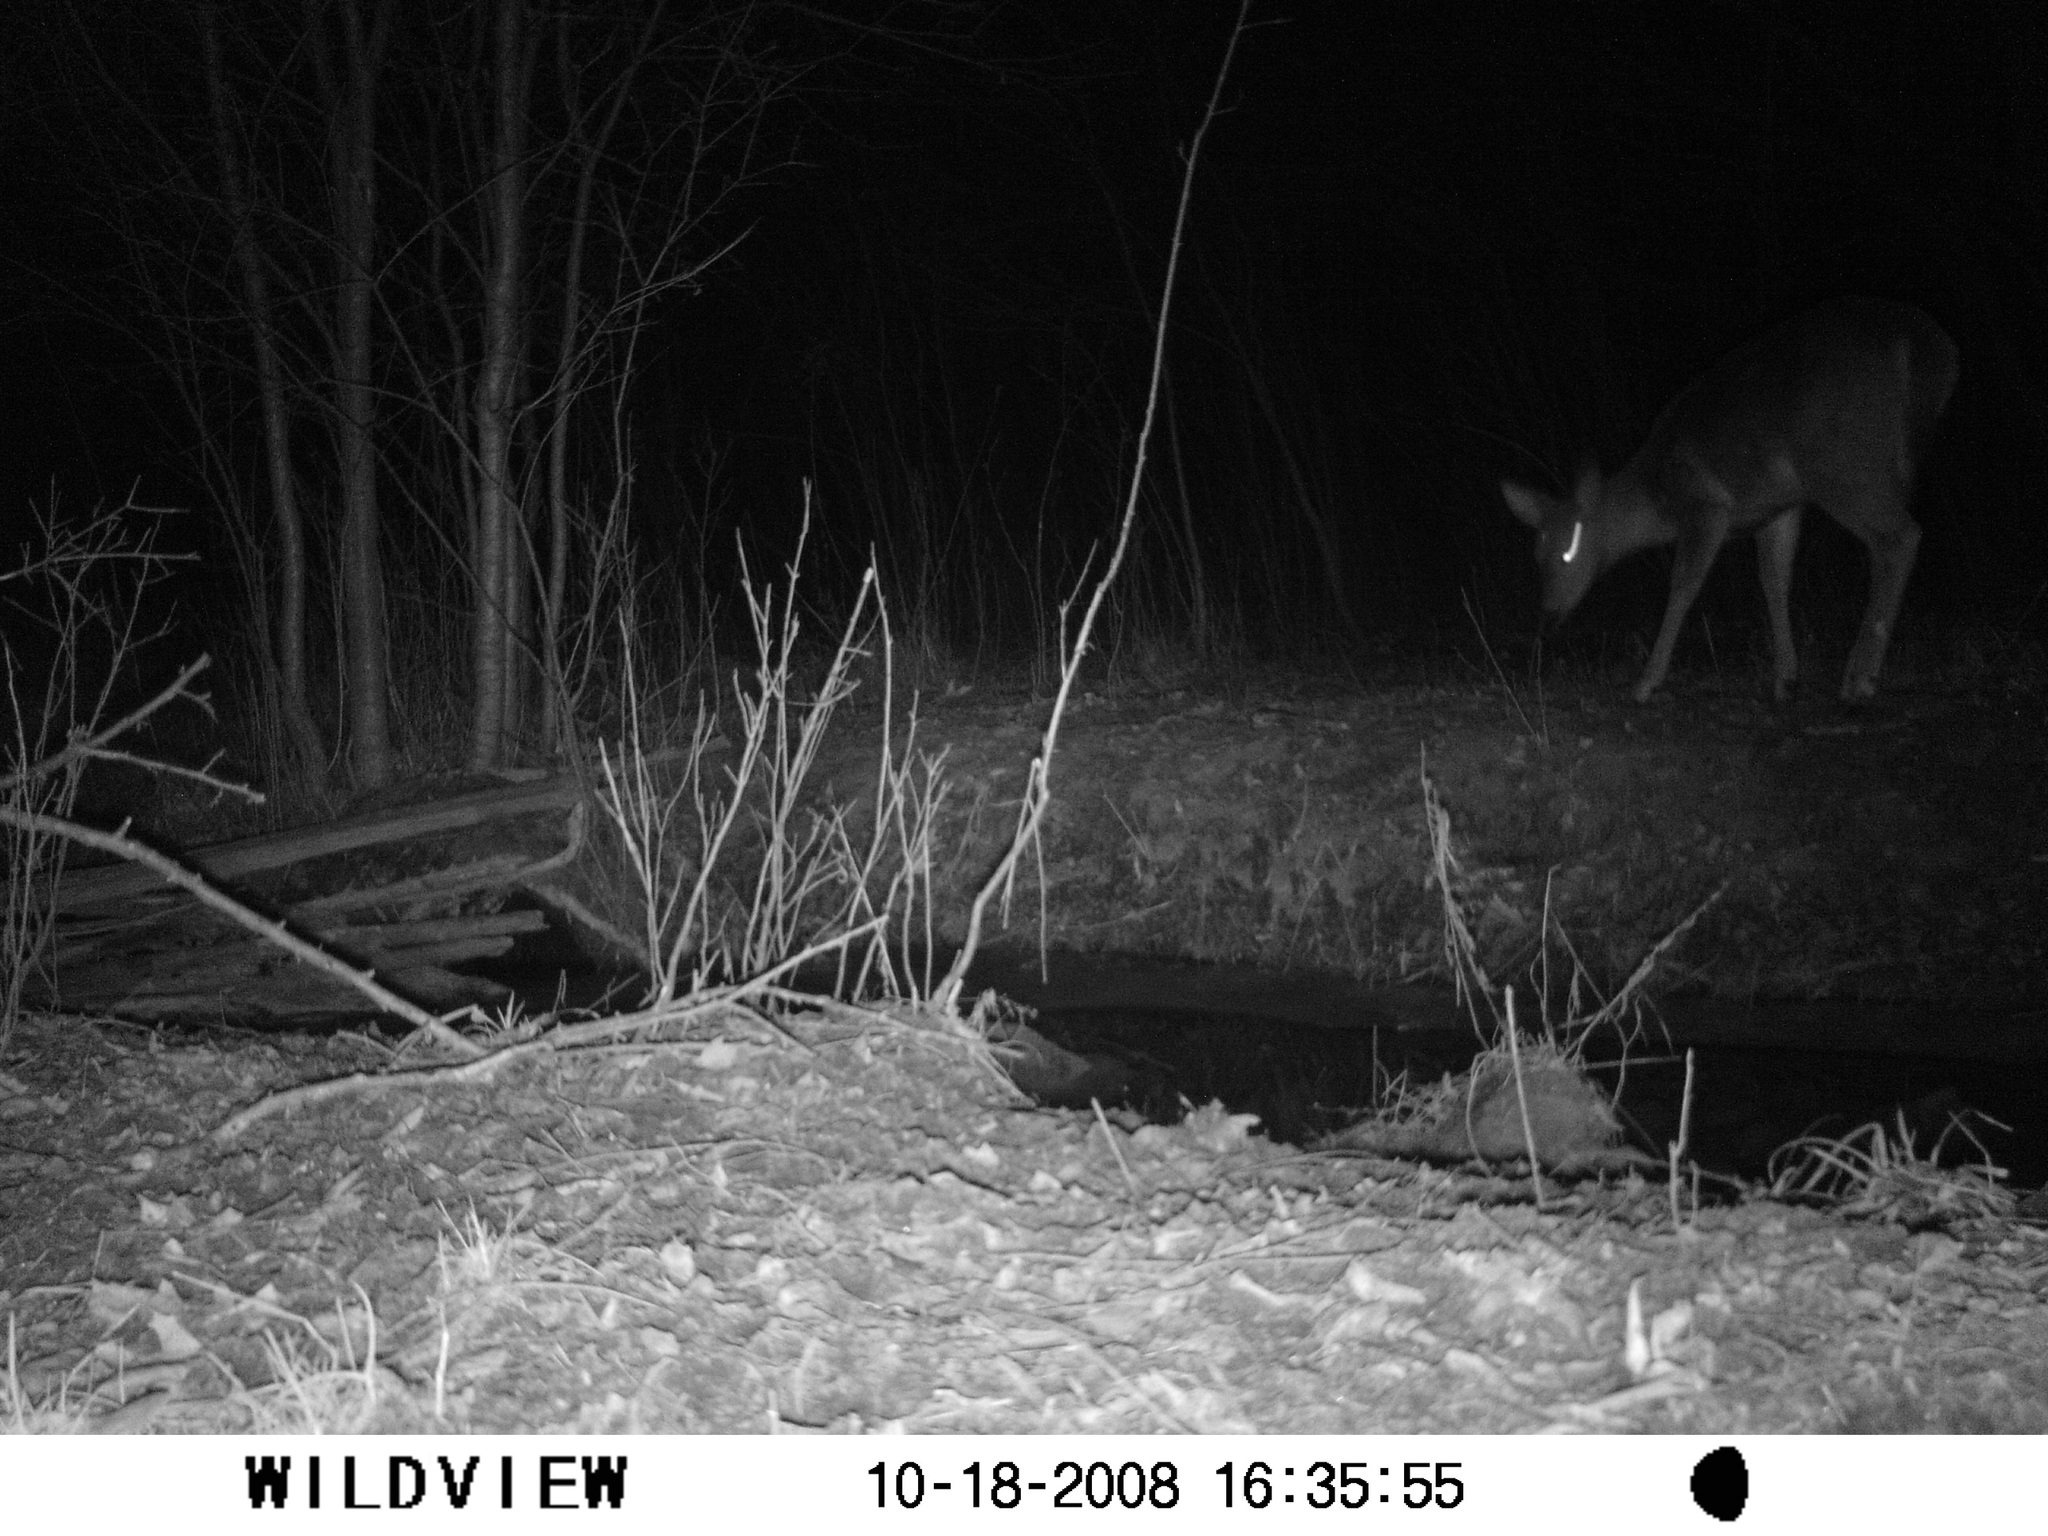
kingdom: Animalia
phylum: Chordata
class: Mammalia
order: Artiodactyla
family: Cervidae
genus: Odocoileus
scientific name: Odocoileus virginianus
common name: White-tailed deer
